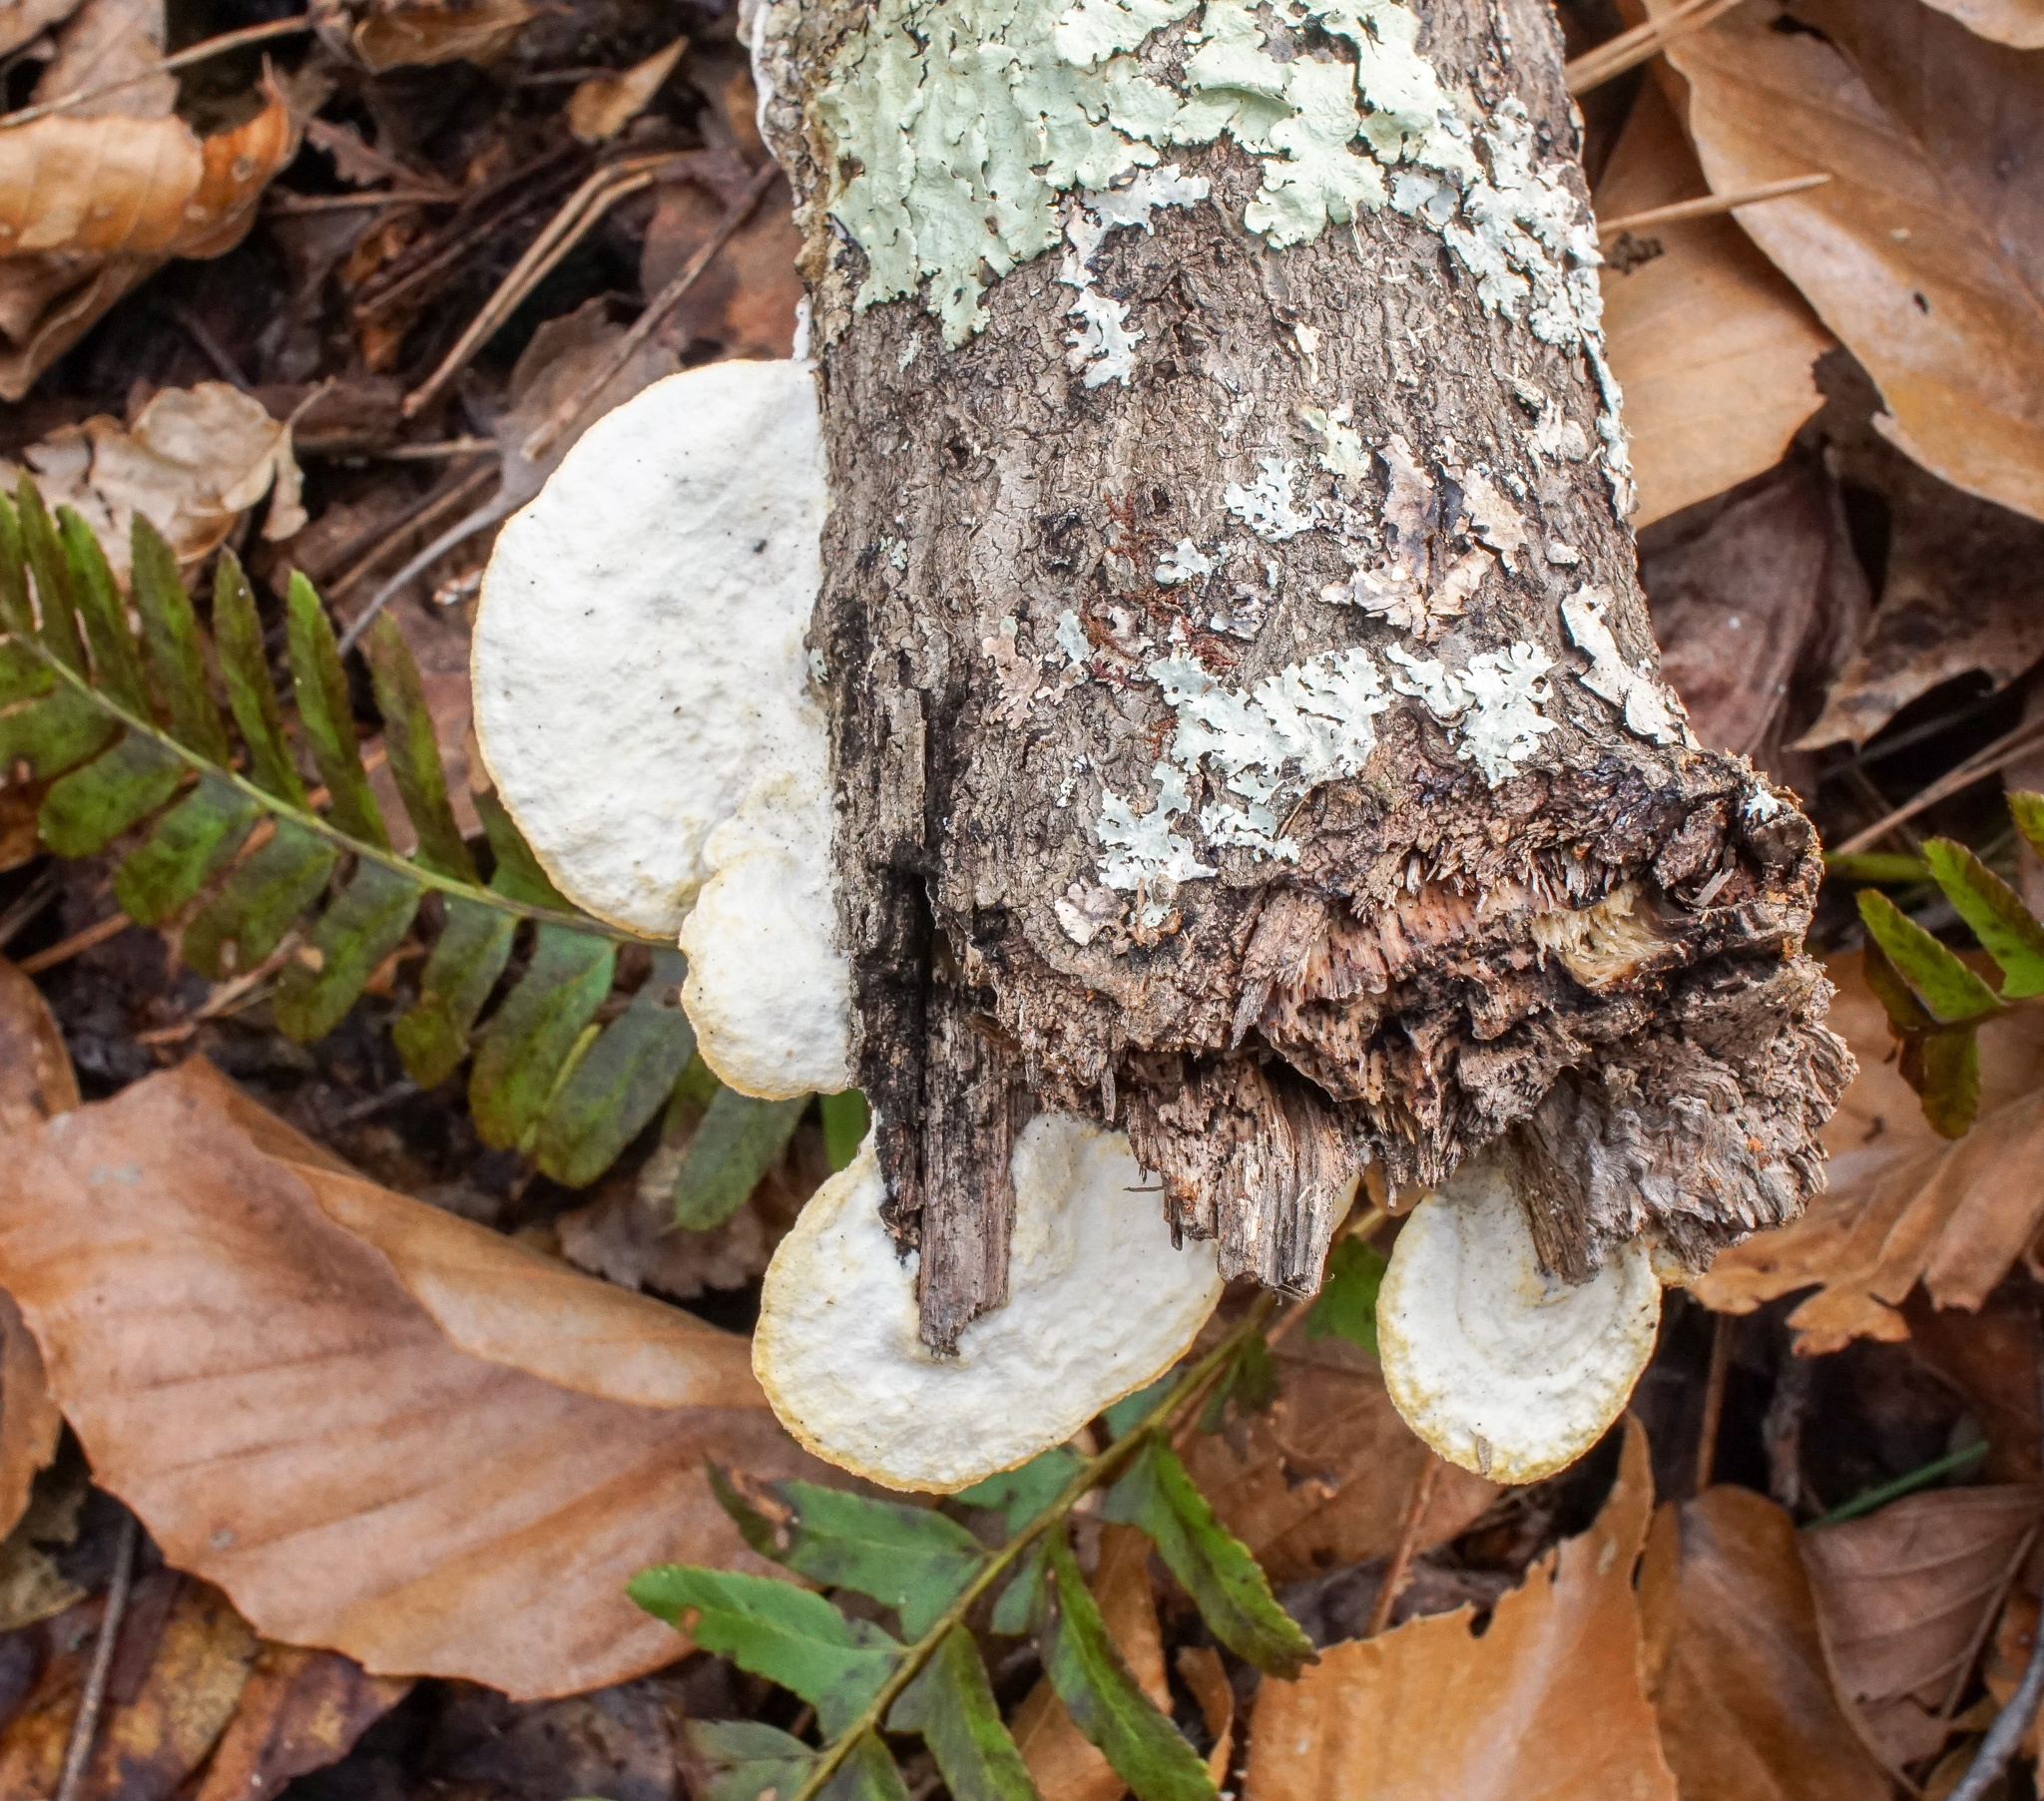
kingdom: Fungi
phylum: Basidiomycota
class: Agaricomycetes
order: Polyporales
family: Irpicaceae
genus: Vitreoporus
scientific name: Vitreoporus dichrous
